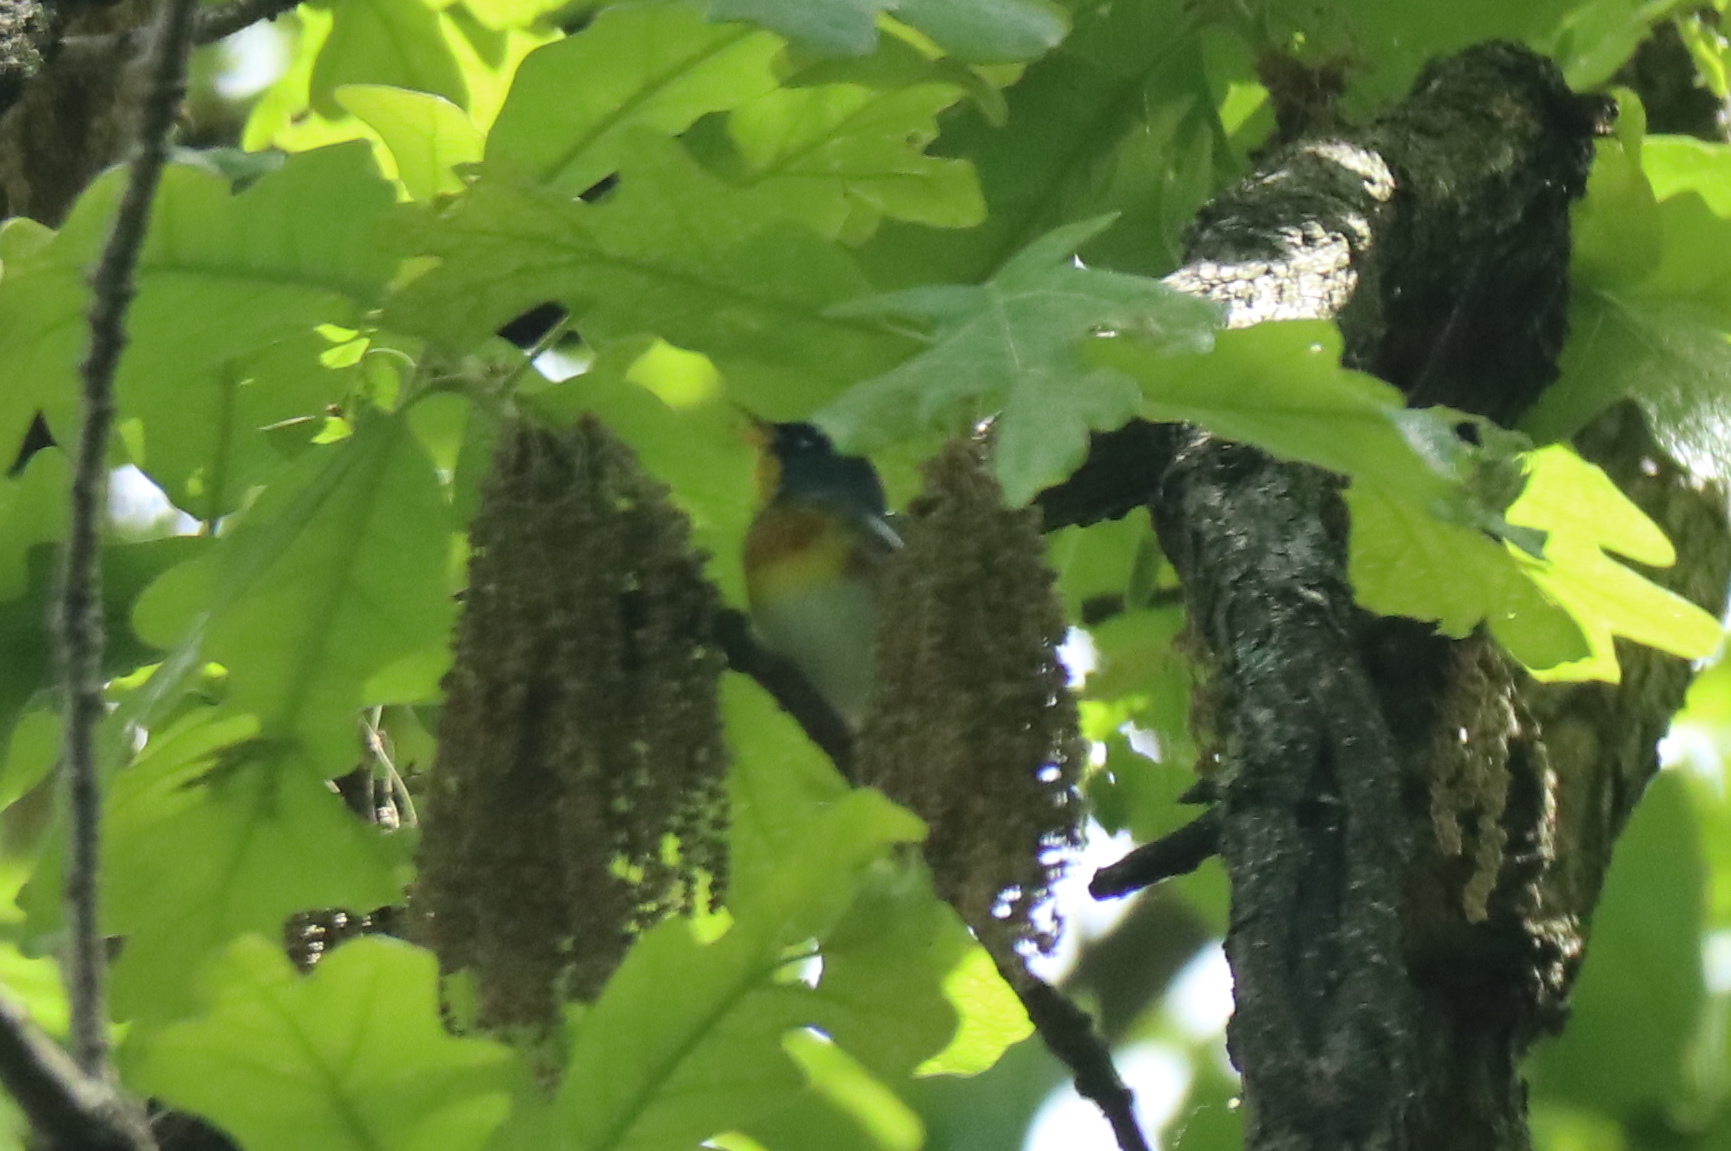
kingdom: Animalia
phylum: Chordata
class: Aves
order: Passeriformes
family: Parulidae
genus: Setophaga
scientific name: Setophaga americana
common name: Northern parula
